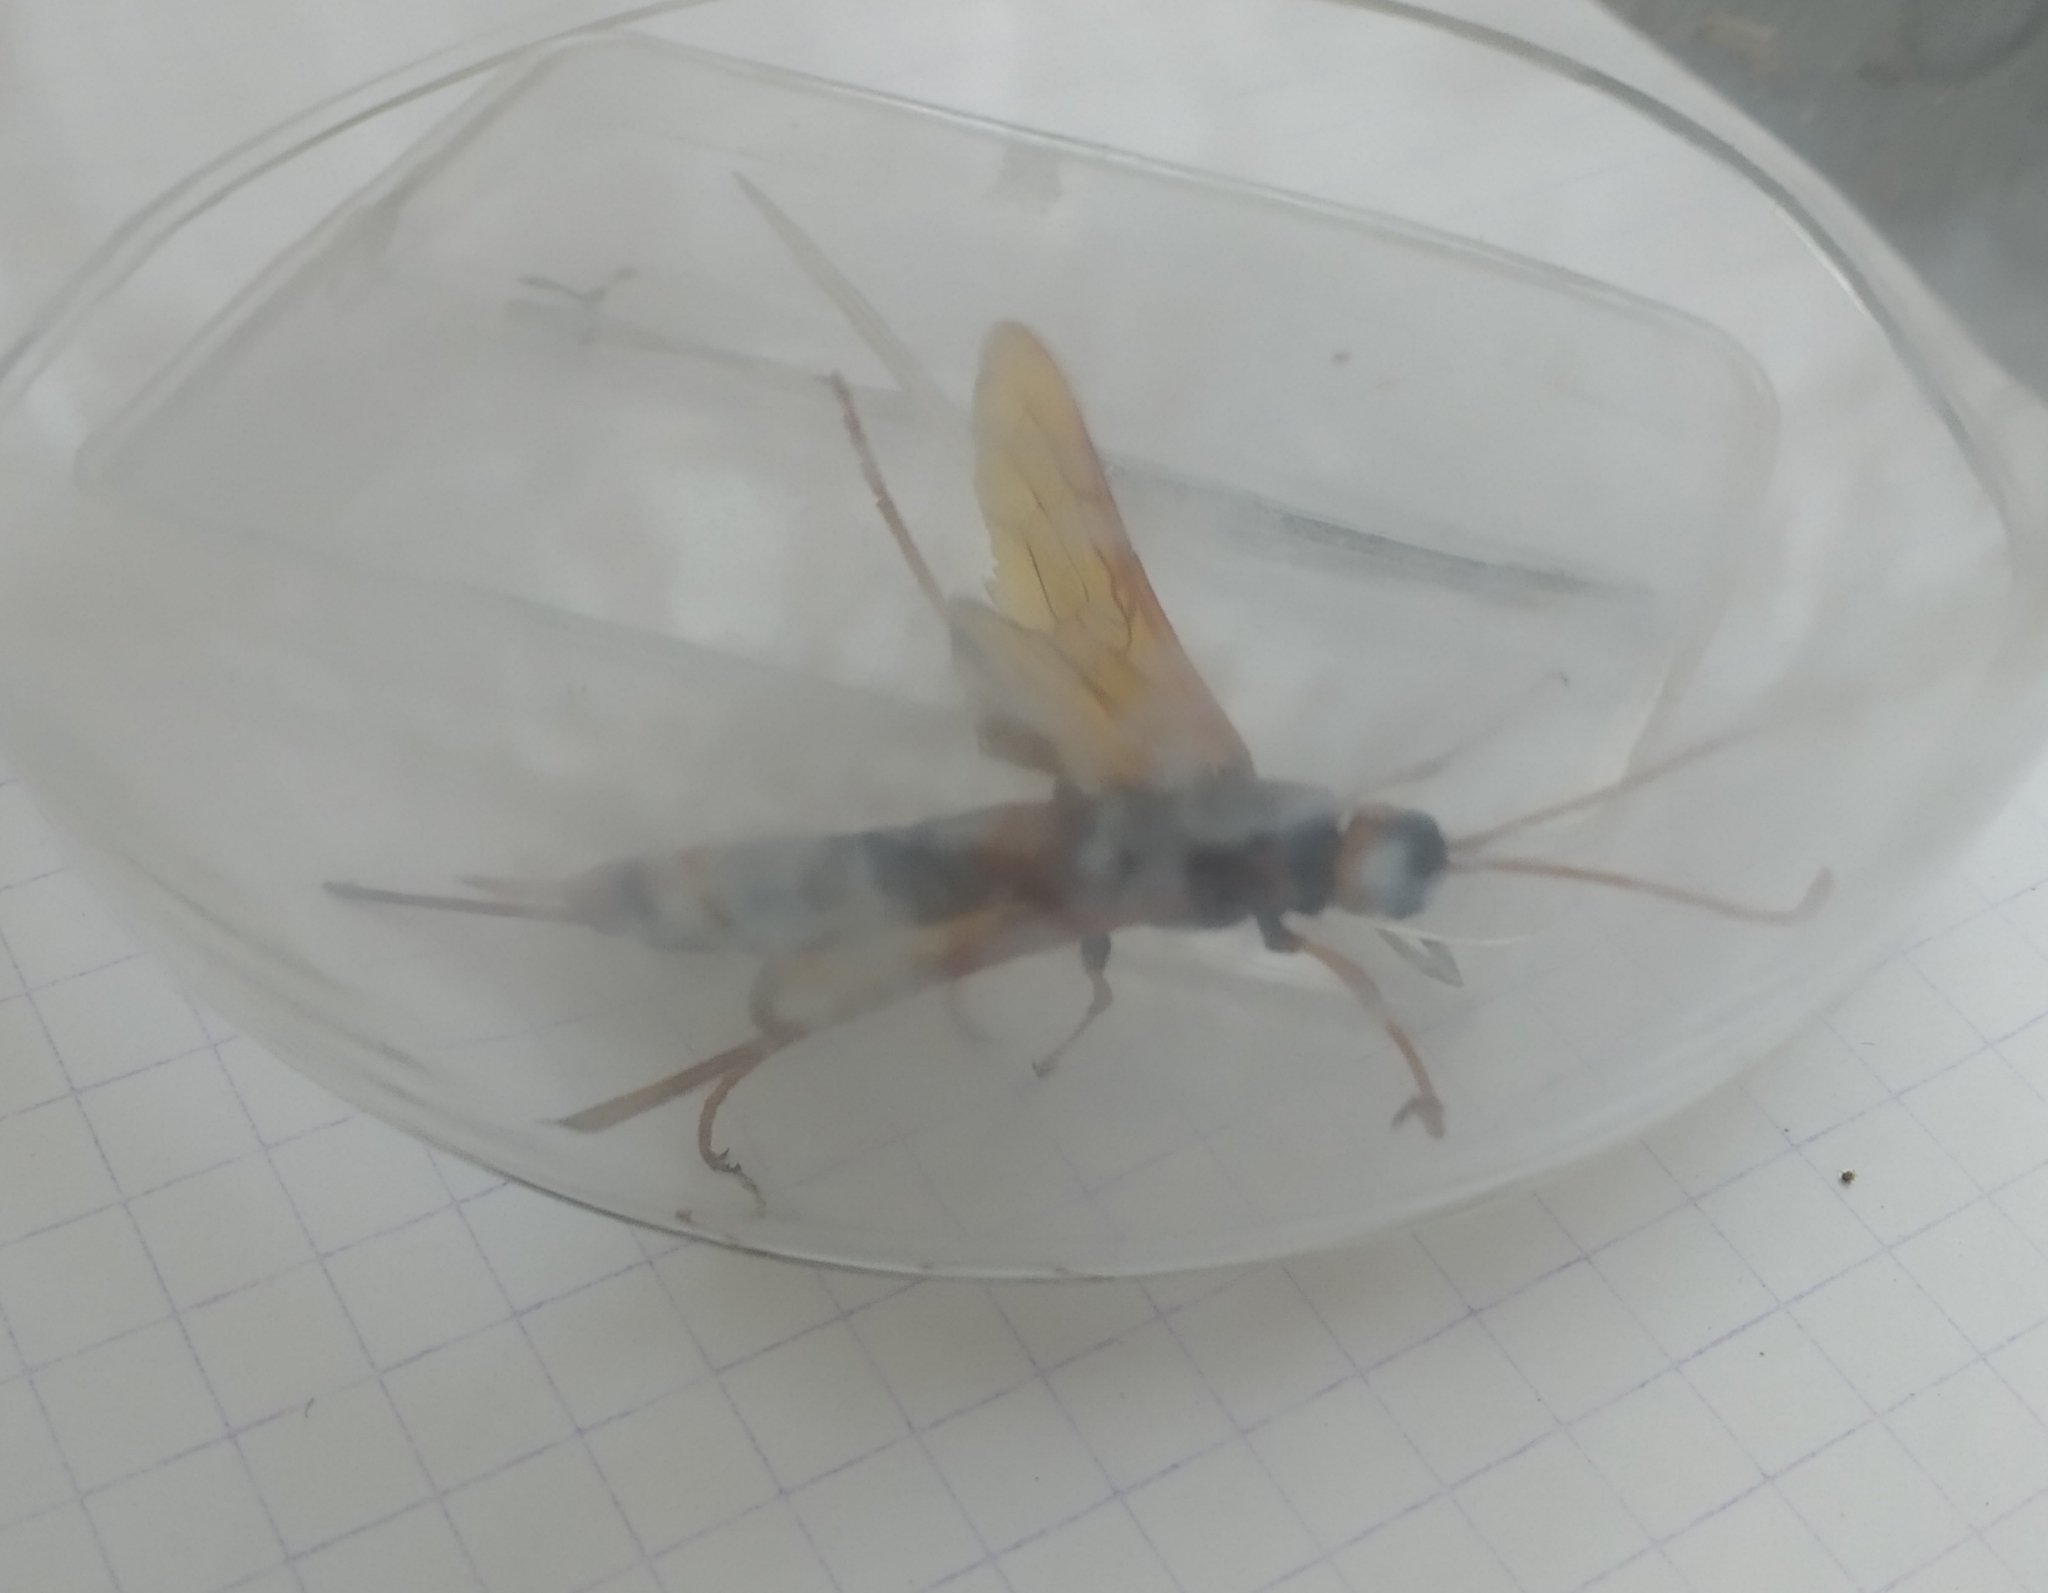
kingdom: Animalia
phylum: Arthropoda
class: Insecta
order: Hymenoptera
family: Siricidae
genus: Urocerus
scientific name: Urocerus gigas
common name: Giant woodwasp
